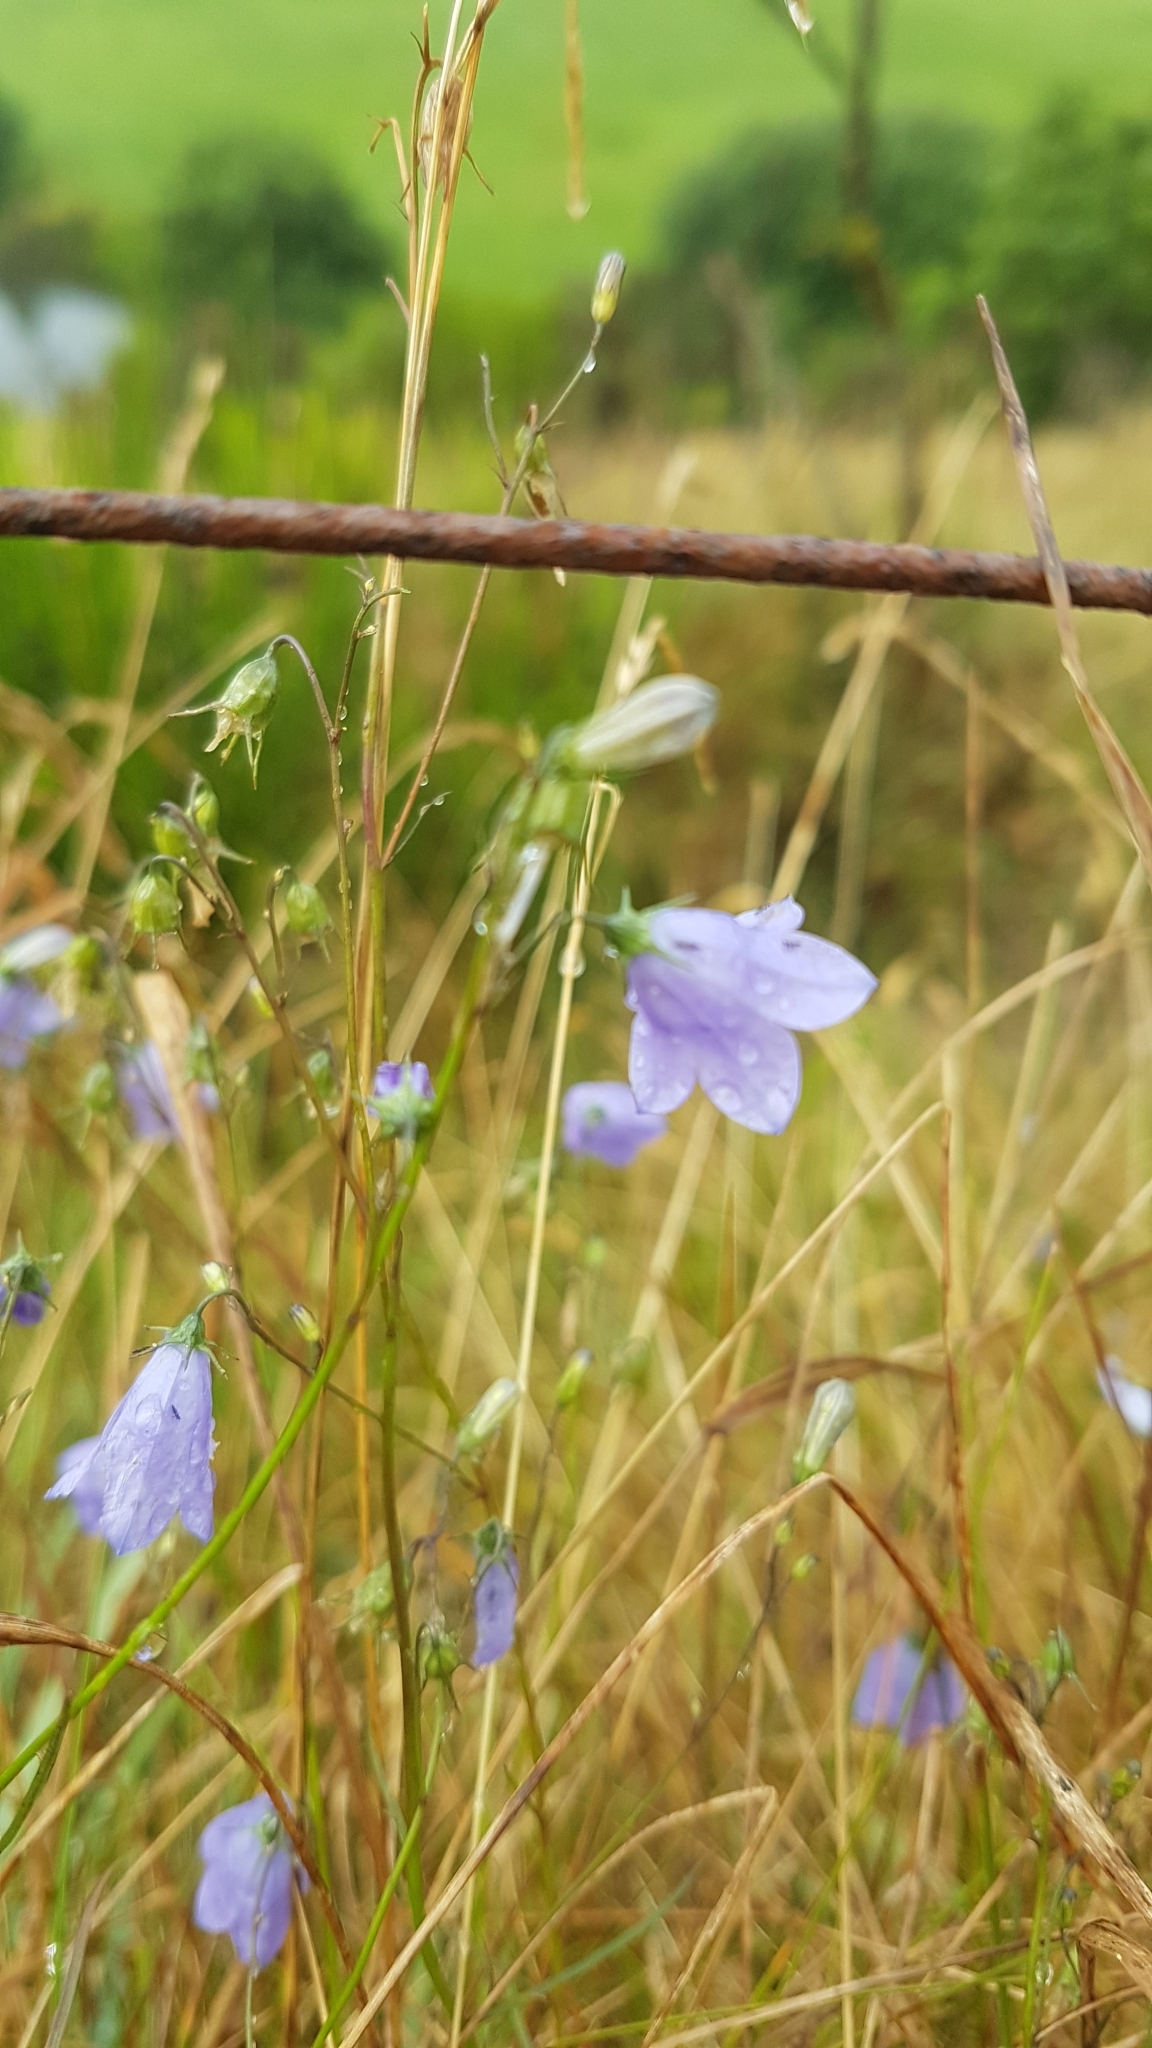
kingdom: Plantae
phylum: Tracheophyta
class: Magnoliopsida
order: Asterales
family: Campanulaceae
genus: Campanula
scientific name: Campanula rotundifolia
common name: Harebell
